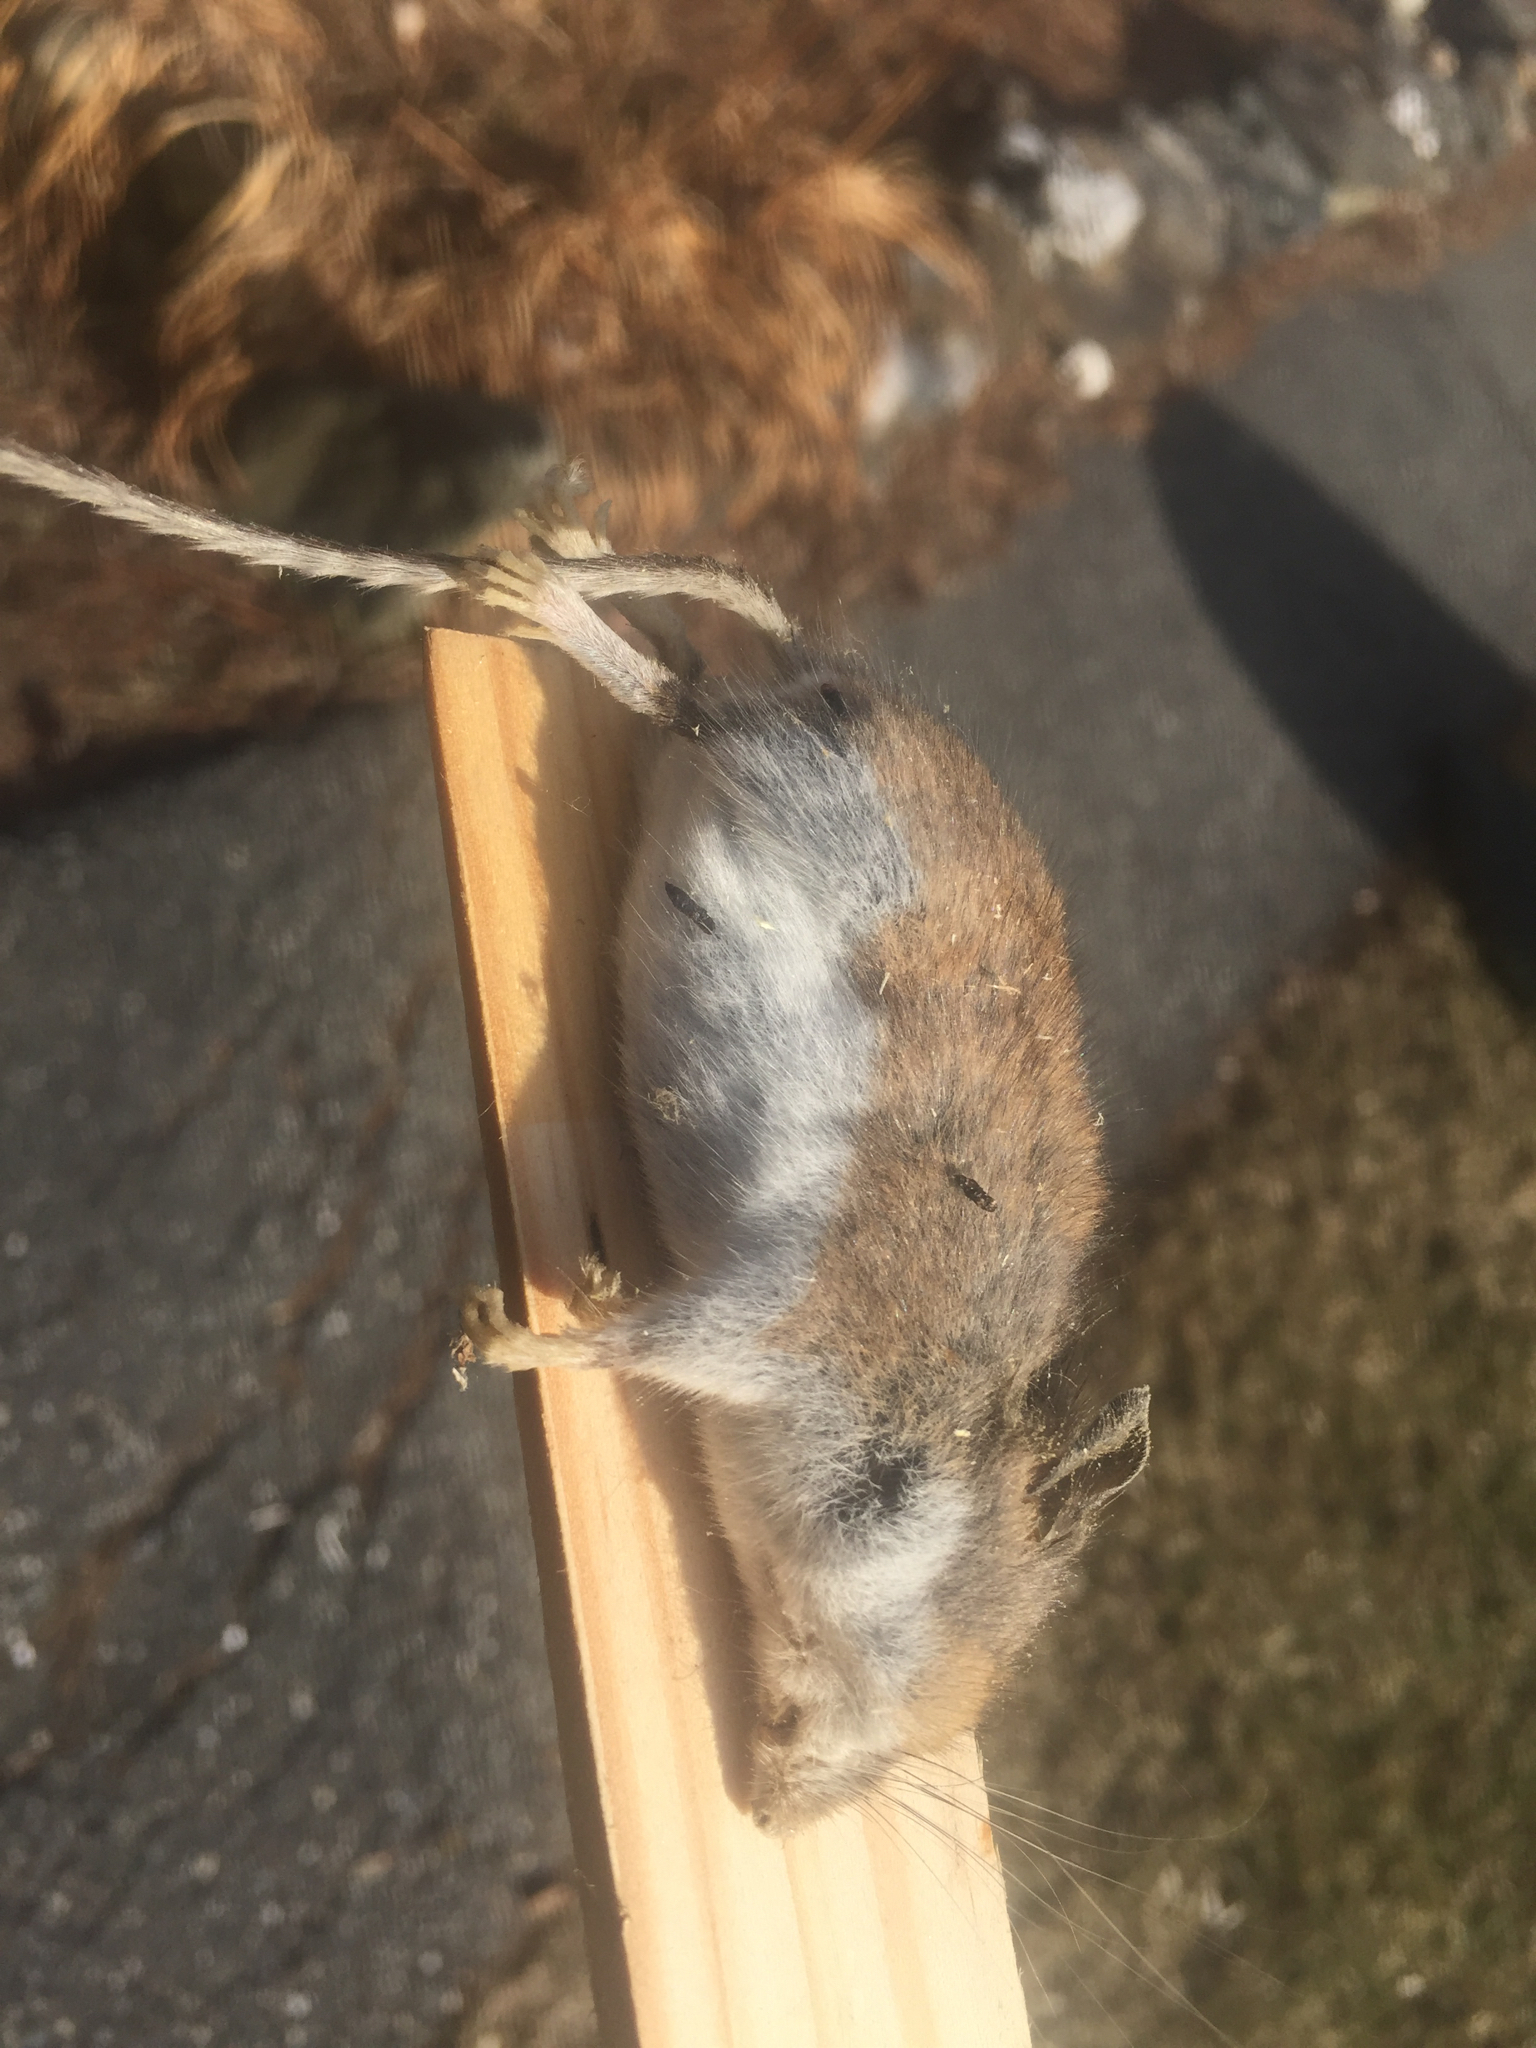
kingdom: Animalia
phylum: Chordata
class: Mammalia
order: Rodentia
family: Cricetidae
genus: Peromyscus
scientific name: Peromyscus
